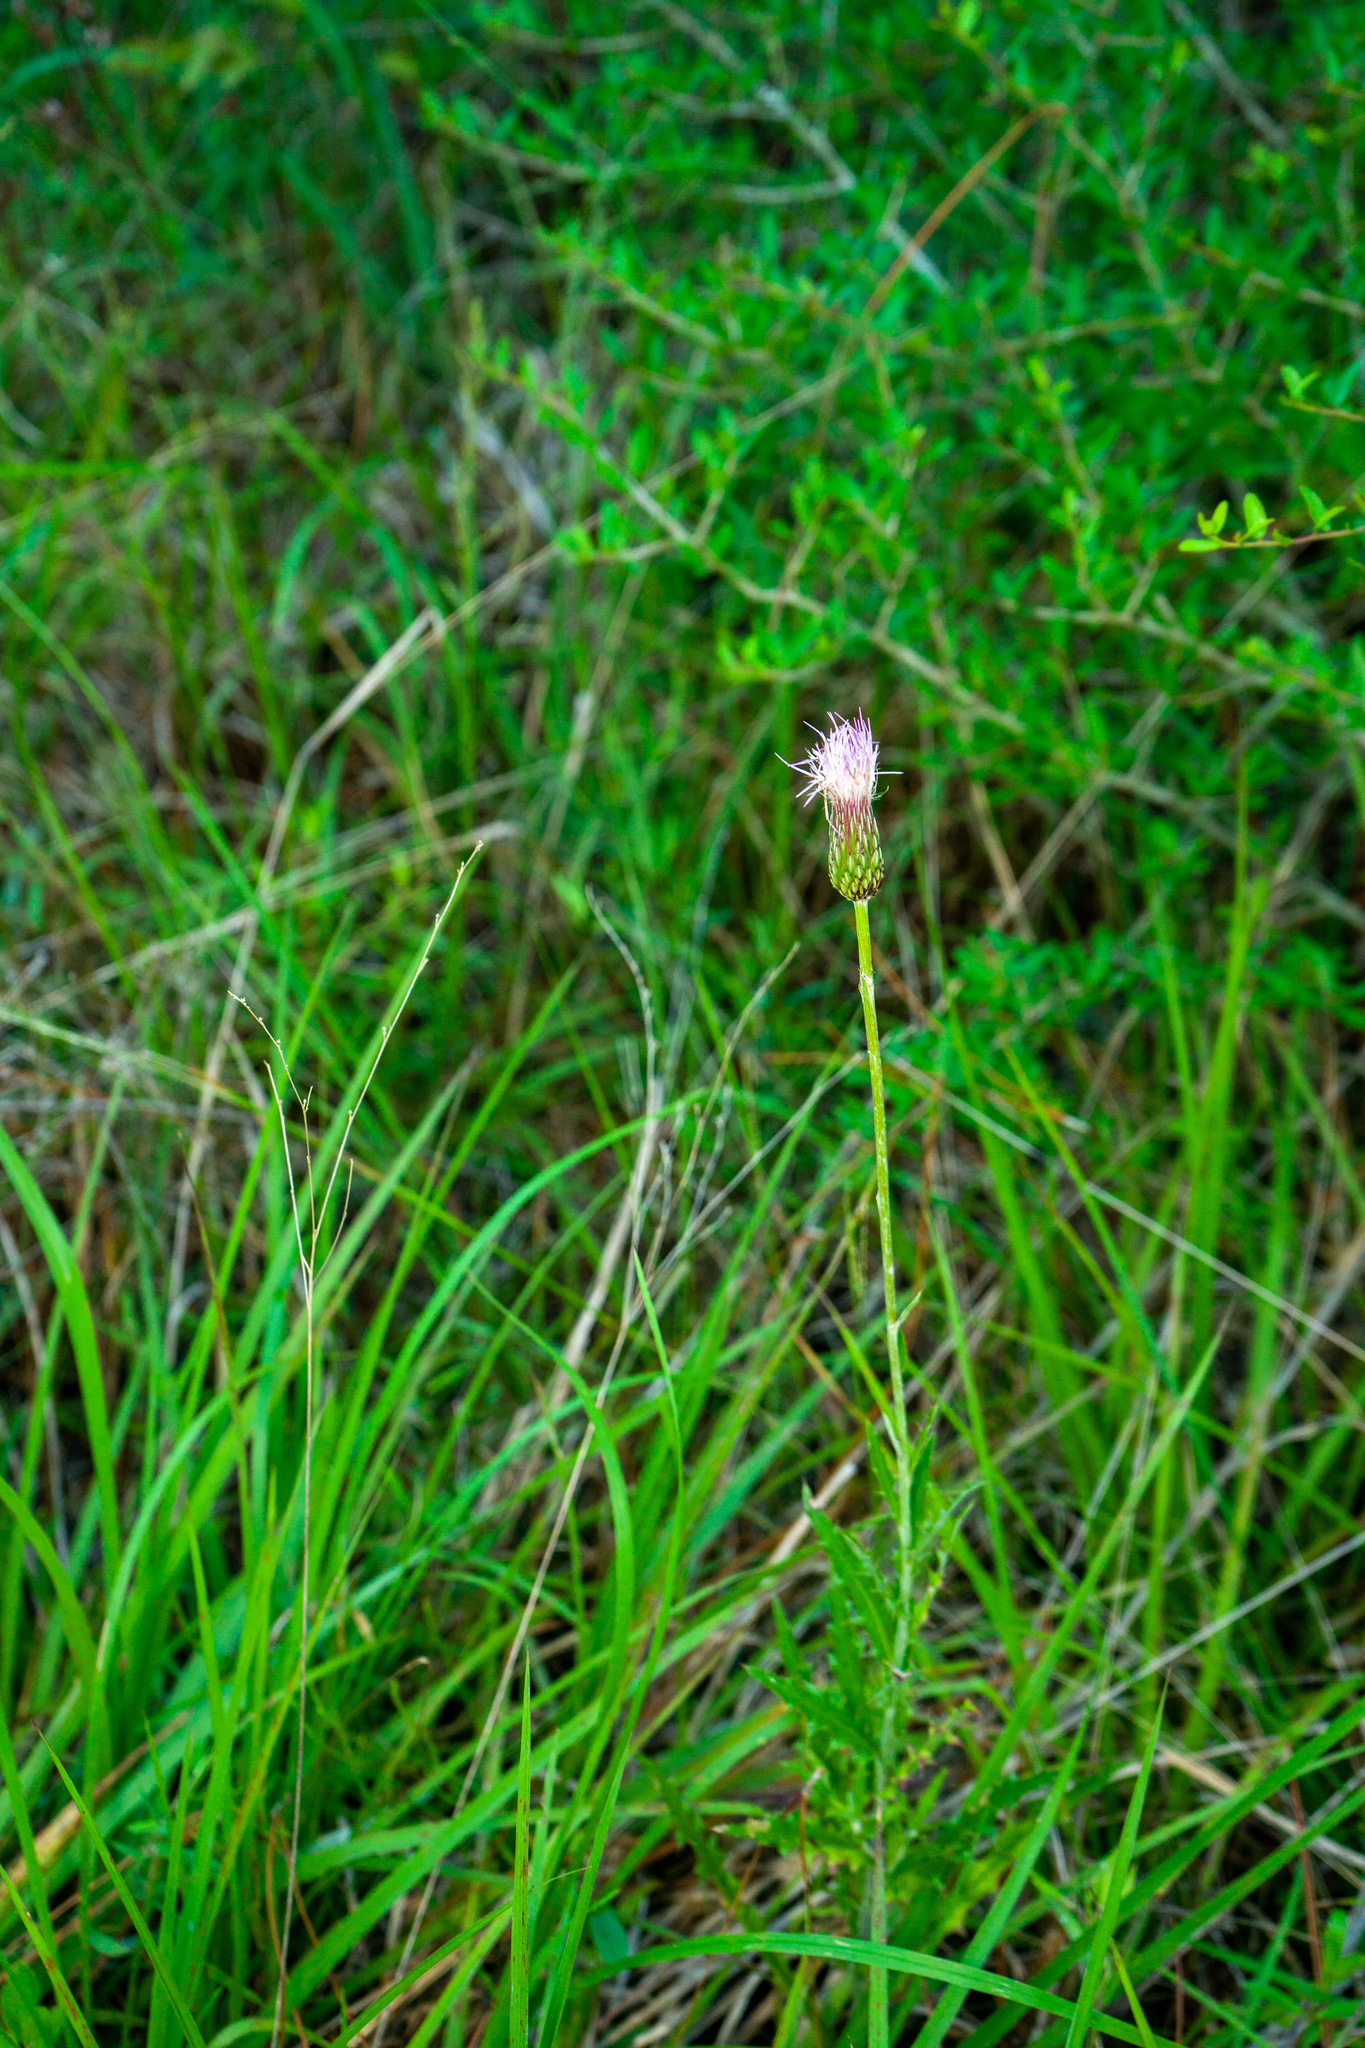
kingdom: Plantae
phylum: Tracheophyta
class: Magnoliopsida
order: Asterales
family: Asteraceae
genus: Cirsium
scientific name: Cirsium lecontei
